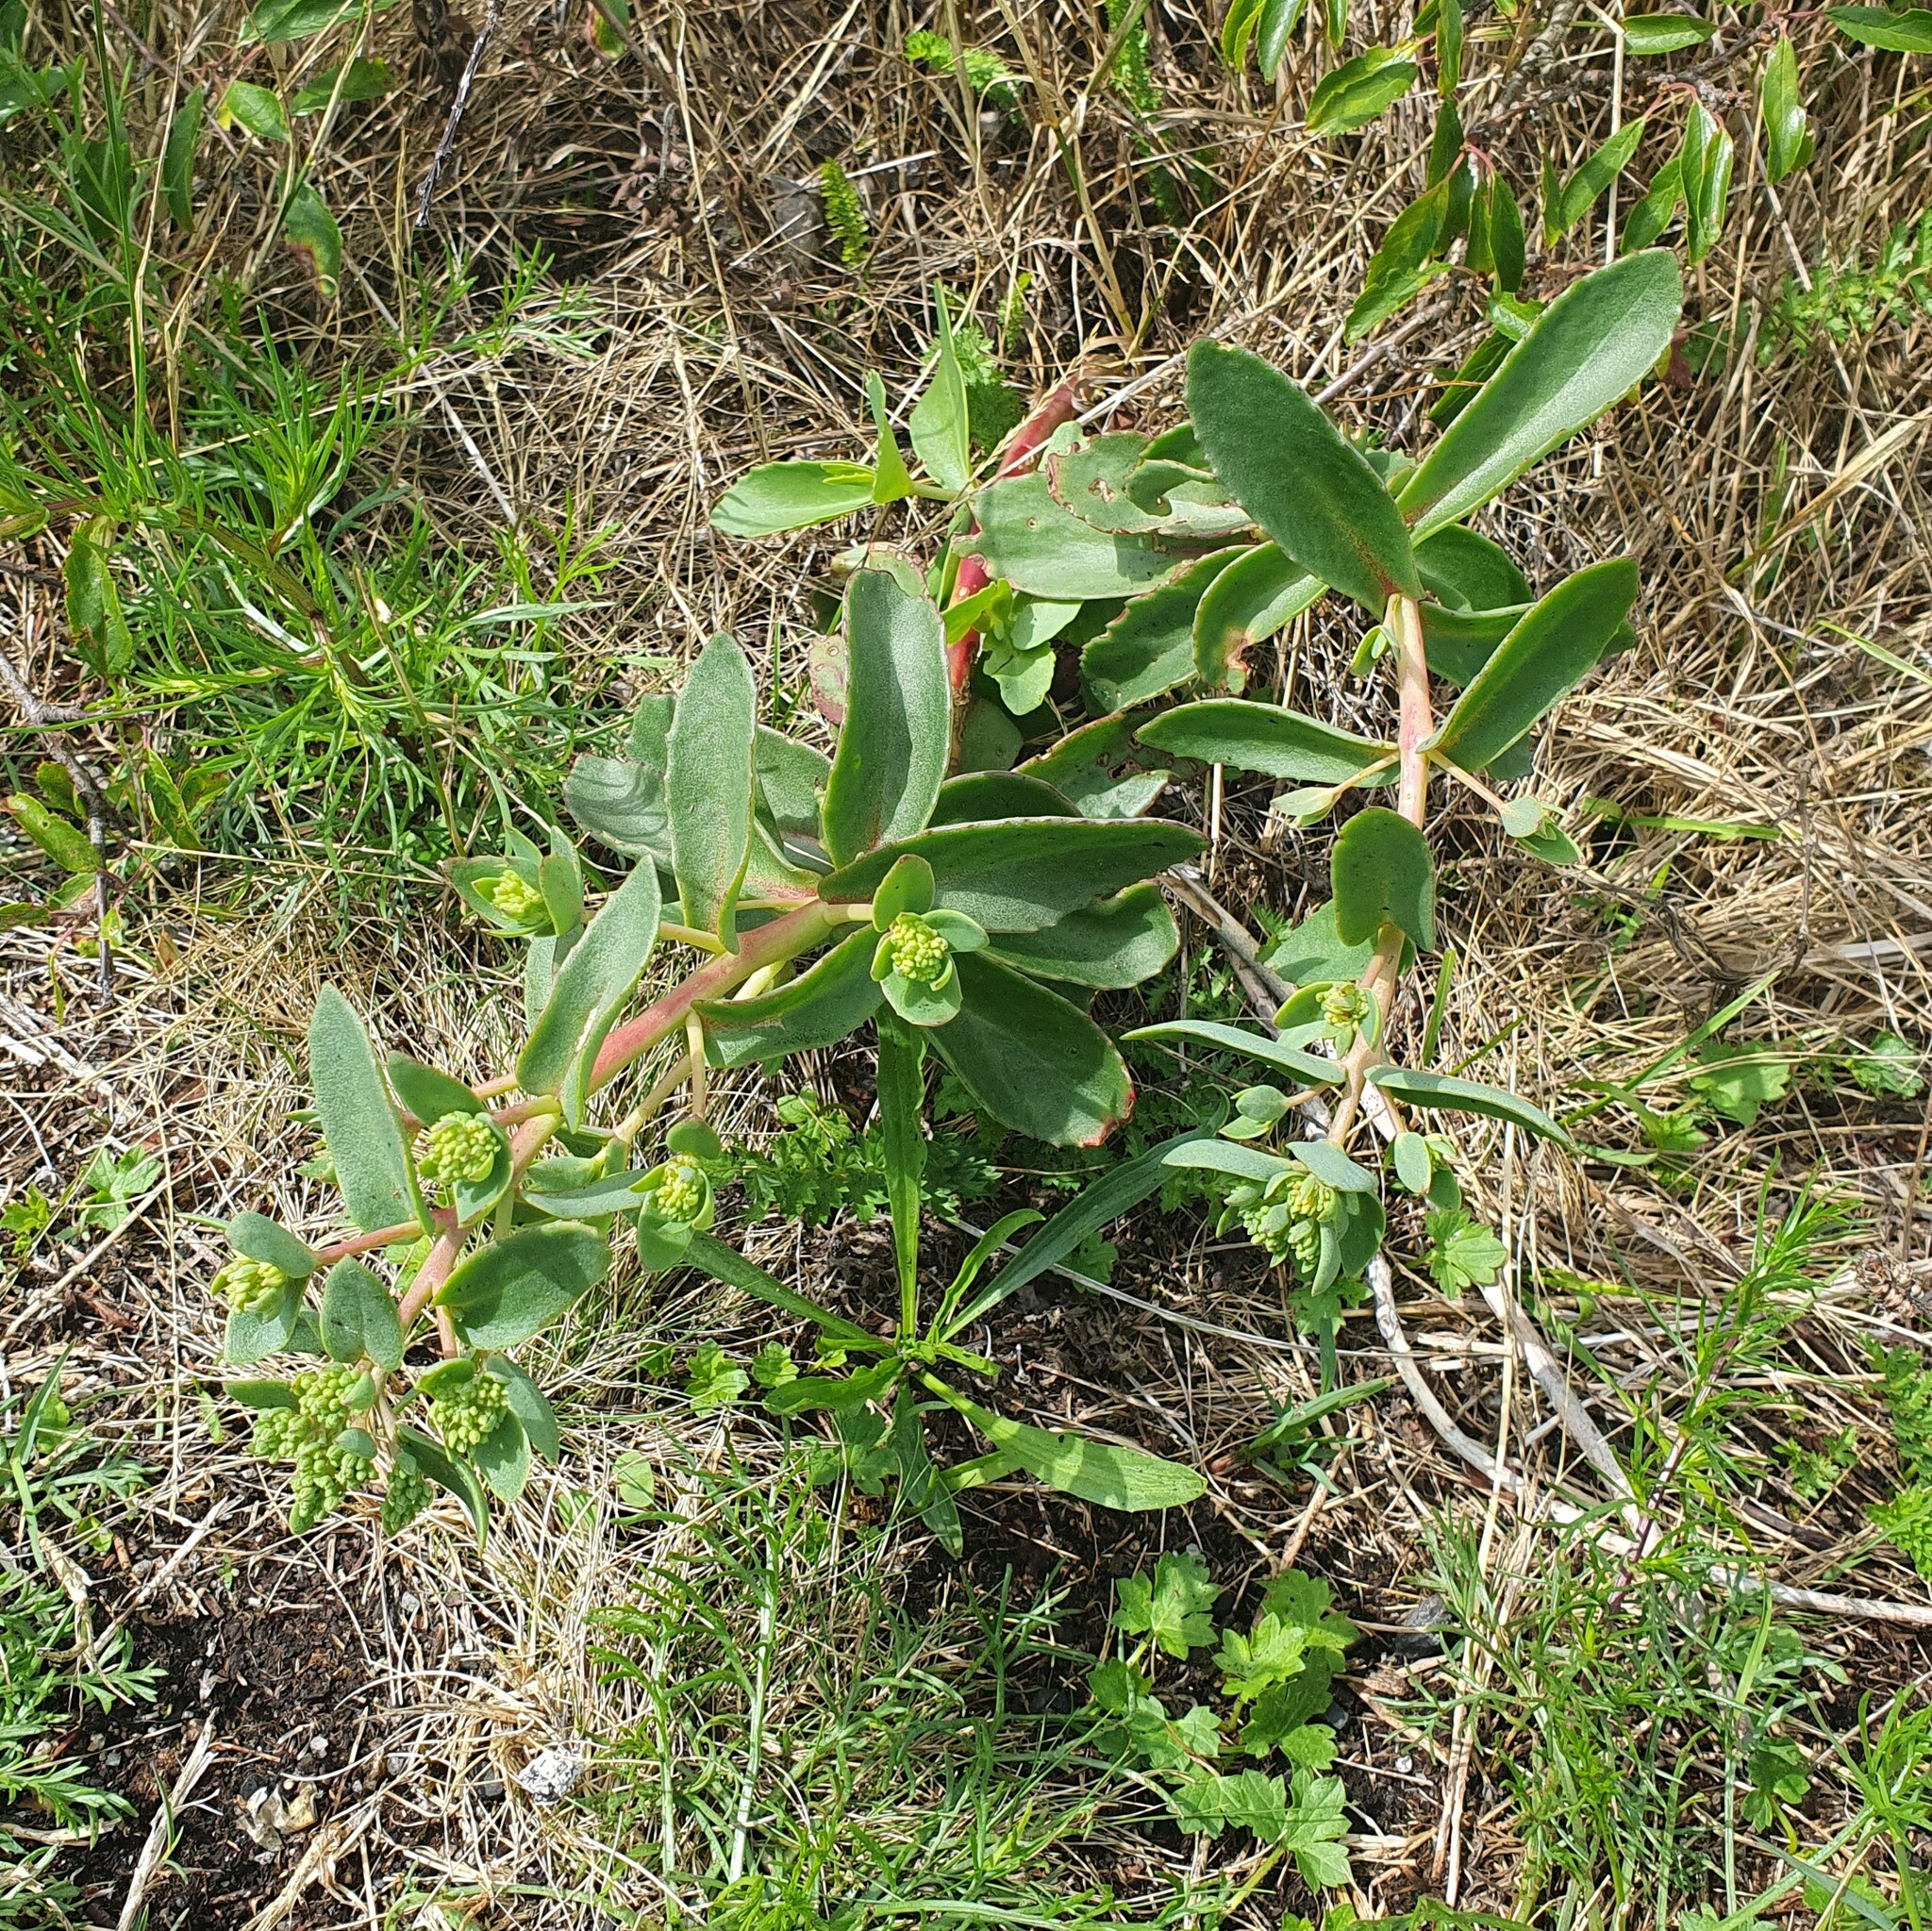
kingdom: Plantae
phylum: Tracheophyta
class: Magnoliopsida
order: Saxifragales
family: Crassulaceae
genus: Hylotelephium
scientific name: Hylotelephium maximum
